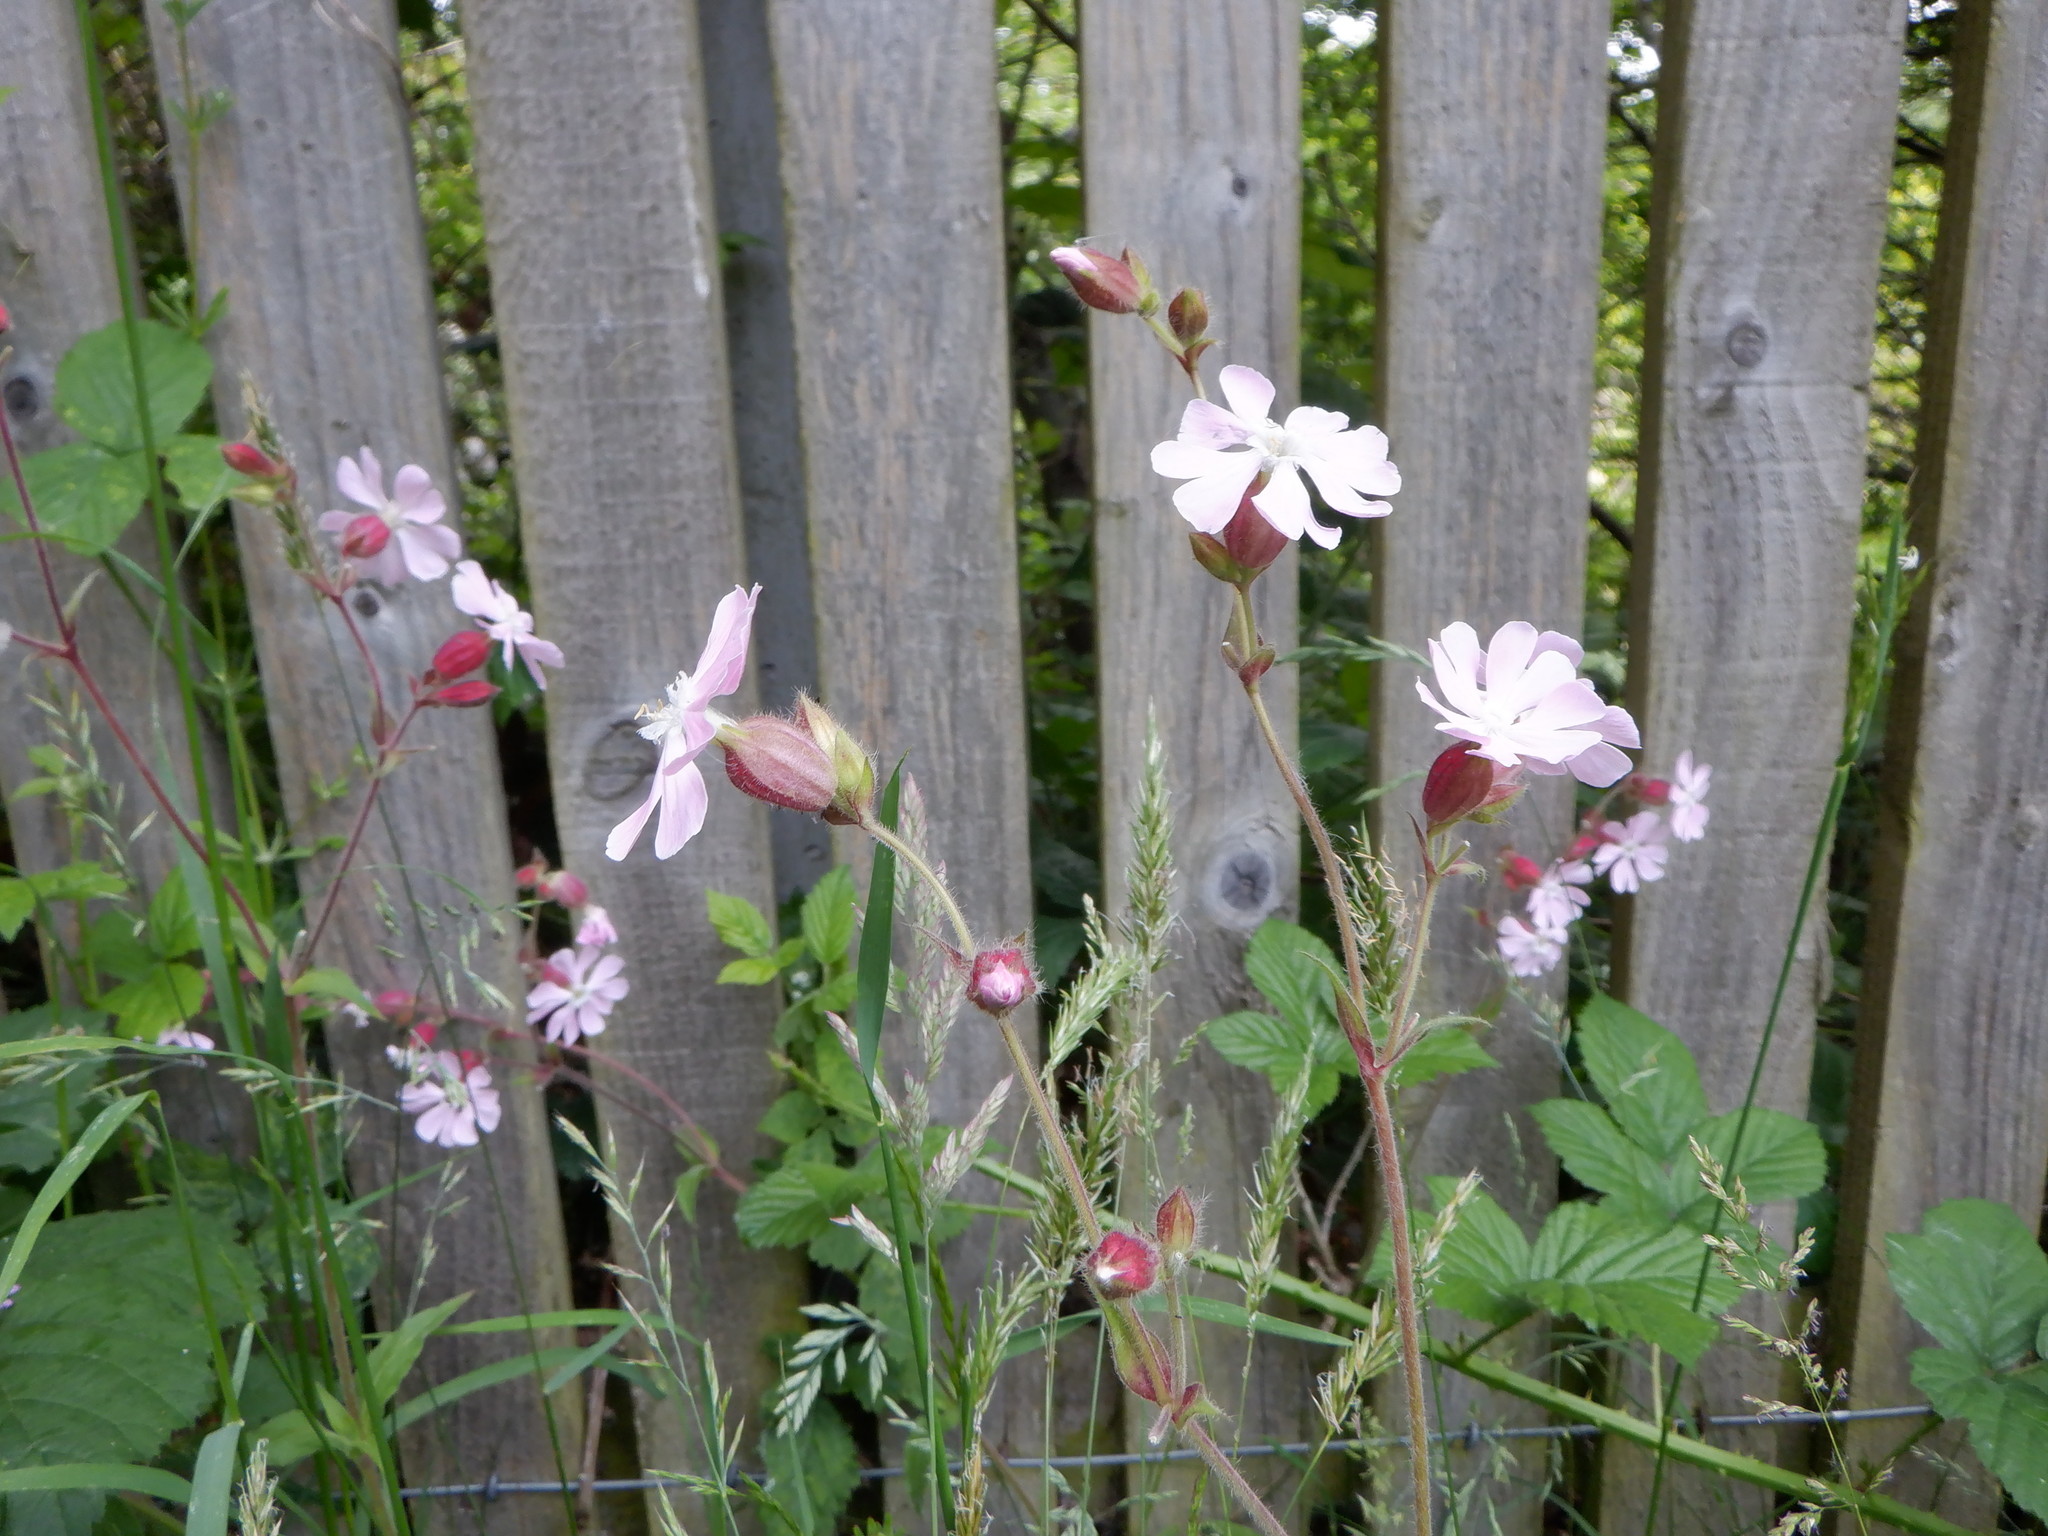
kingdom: Plantae
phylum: Tracheophyta
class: Magnoliopsida
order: Caryophyllales
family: Caryophyllaceae
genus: Silene
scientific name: Silene dioica
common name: Red campion
